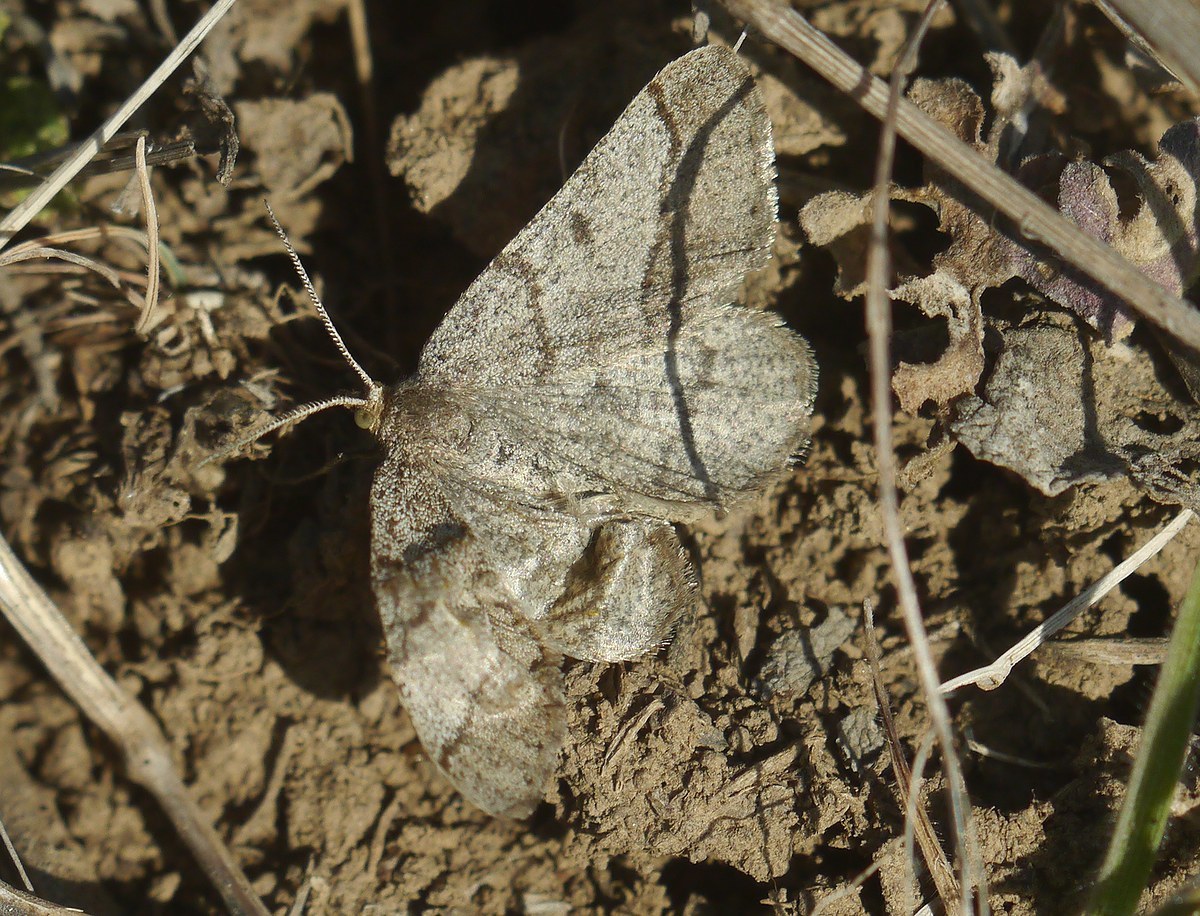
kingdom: Animalia
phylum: Arthropoda
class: Insecta
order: Lepidoptera
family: Geometridae
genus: Tephrina
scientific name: Tephrina murinaria
